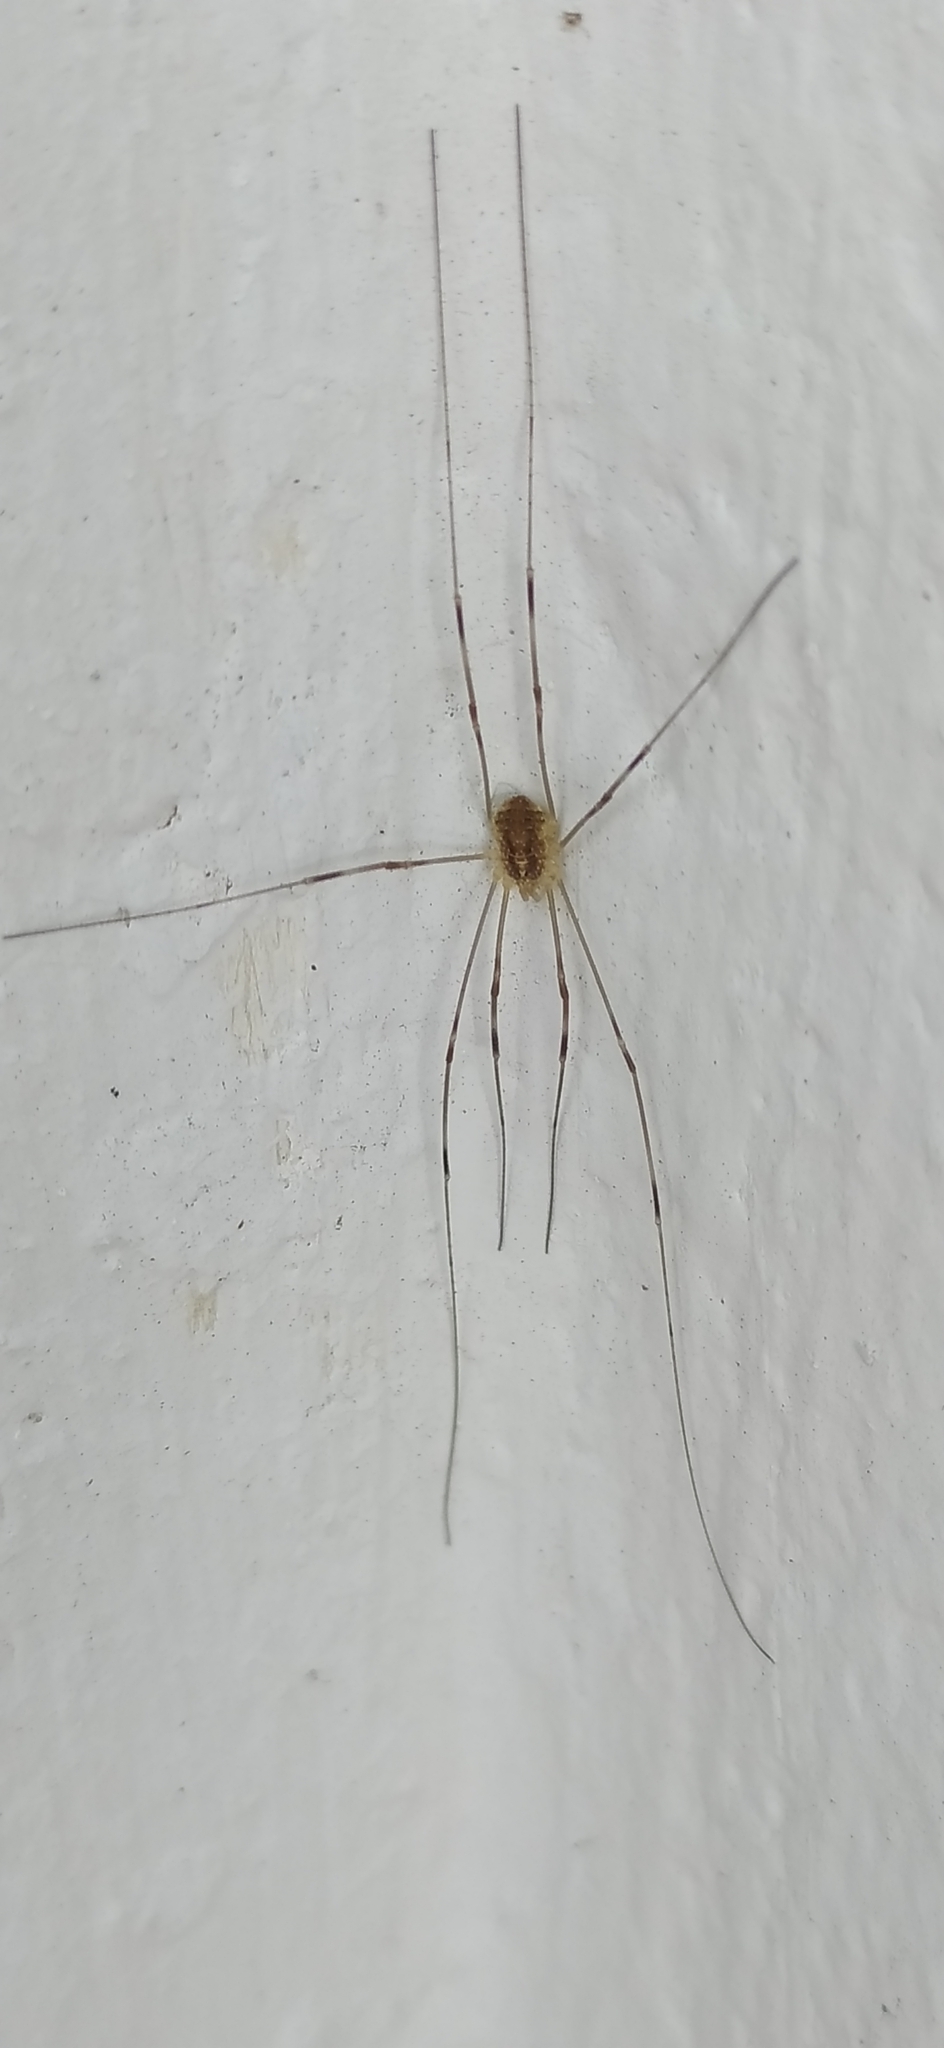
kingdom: Animalia
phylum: Arthropoda
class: Arachnida
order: Opiliones
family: Phalangiidae
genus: Opilio
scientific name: Opilio canestrinii
